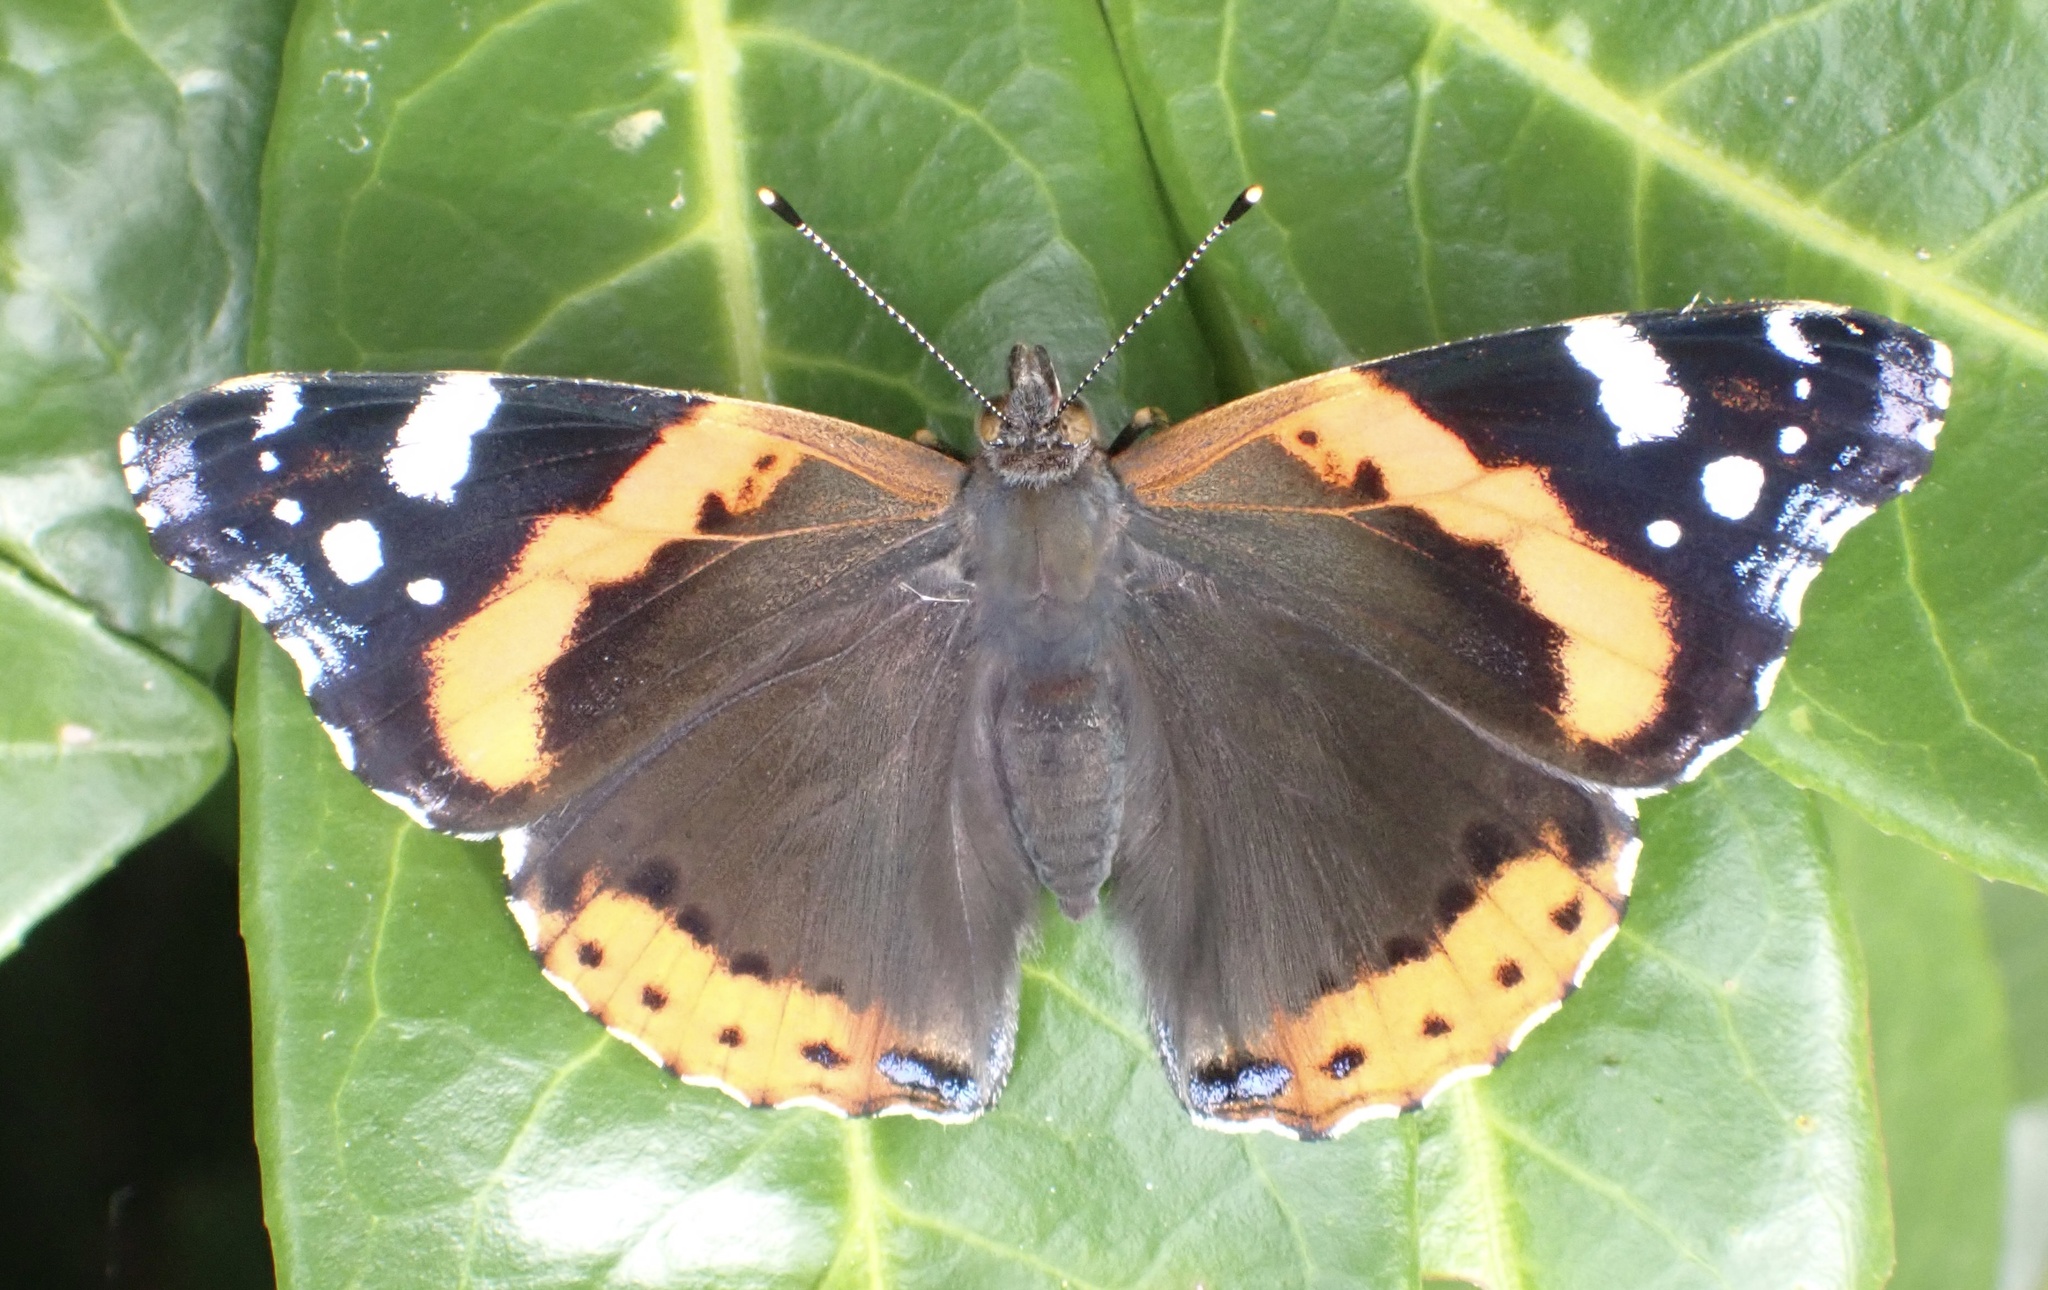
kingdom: Animalia
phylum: Arthropoda
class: Insecta
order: Lepidoptera
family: Nymphalidae
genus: Vanessa
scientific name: Vanessa atalanta
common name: Red admiral
